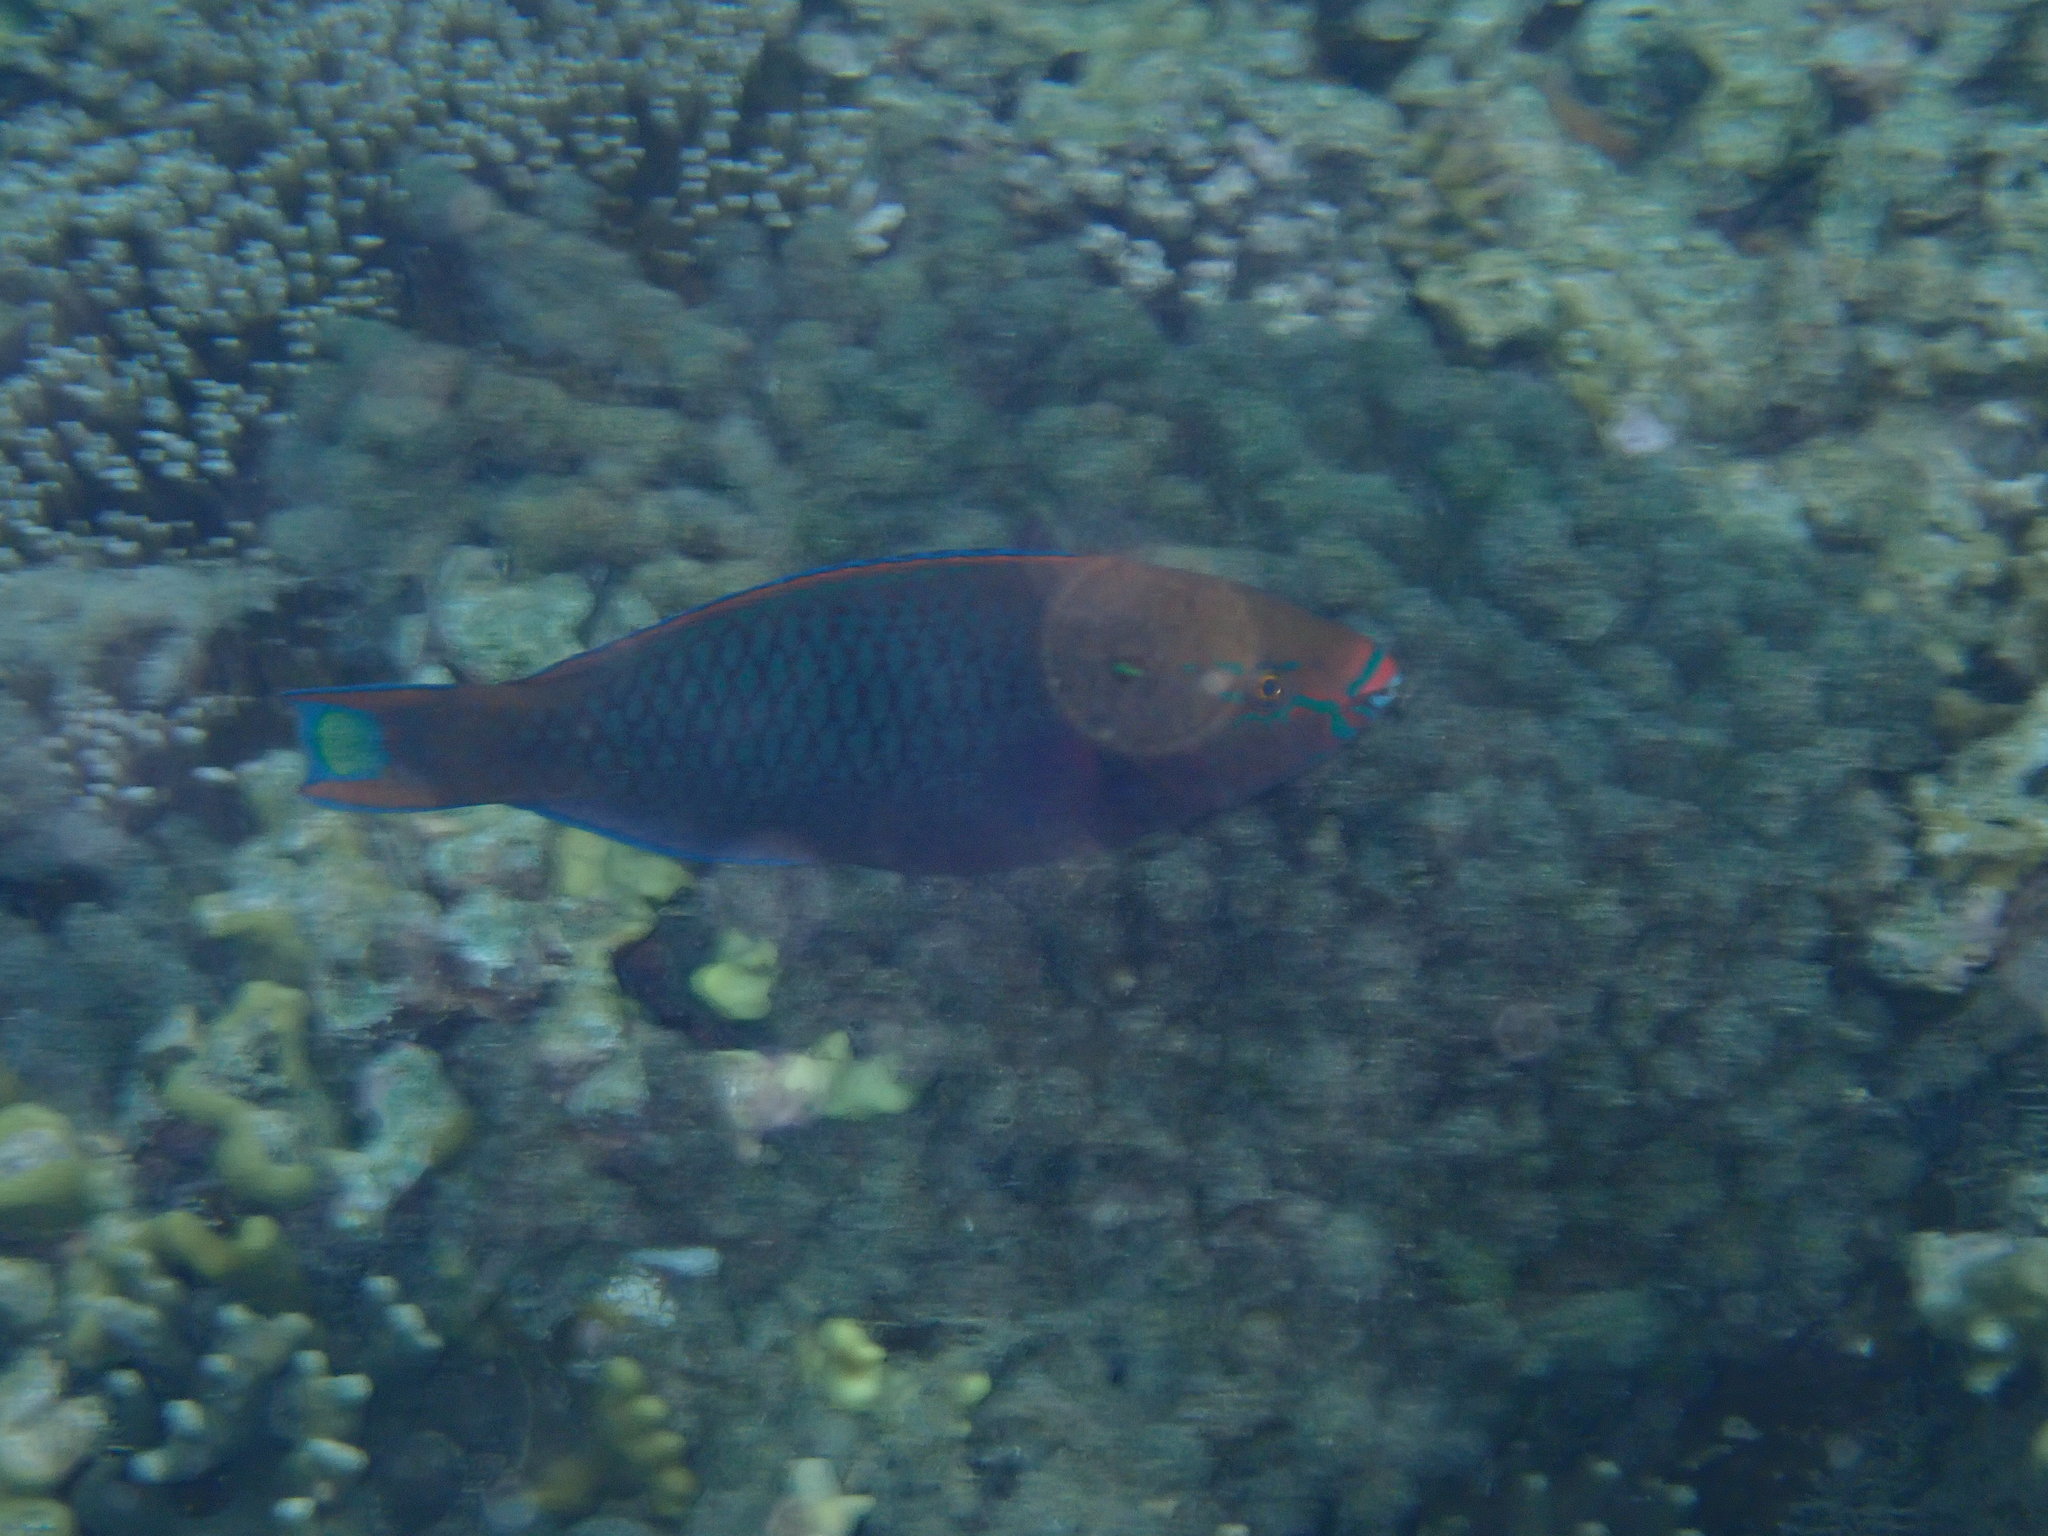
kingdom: Animalia
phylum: Chordata
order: Perciformes
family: Scaridae
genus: Scarus
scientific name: Scarus niger
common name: Dusky parrotfish
